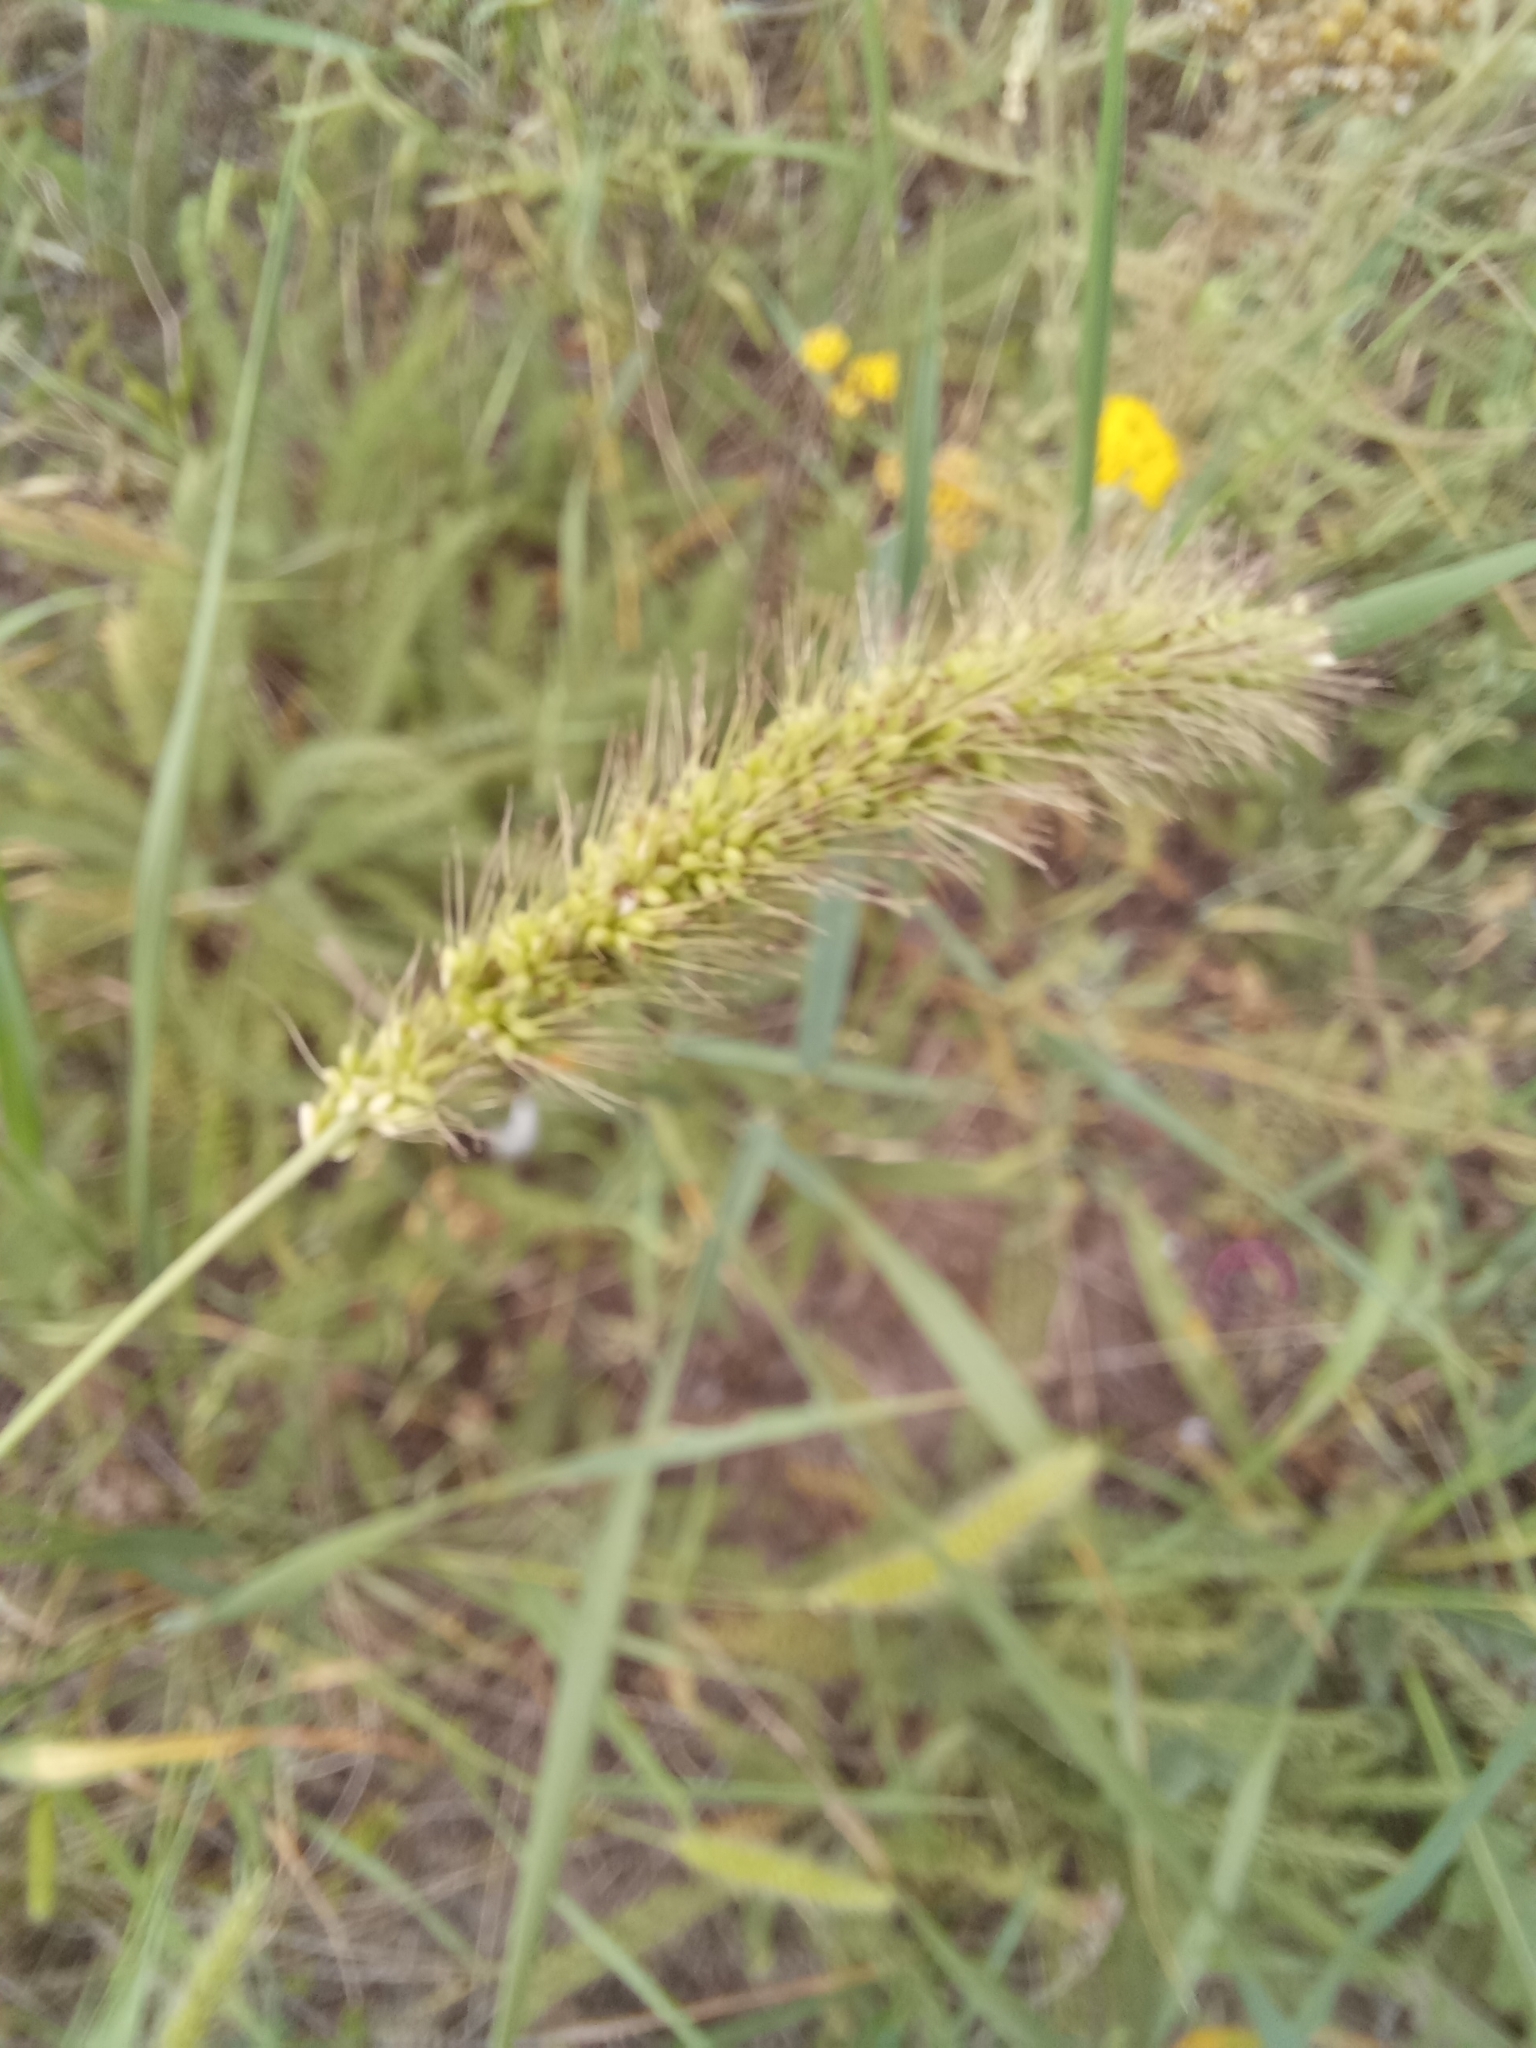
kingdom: Plantae
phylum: Tracheophyta
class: Liliopsida
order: Poales
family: Poaceae
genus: Setaria
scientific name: Setaria viridis
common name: Green bristlegrass
